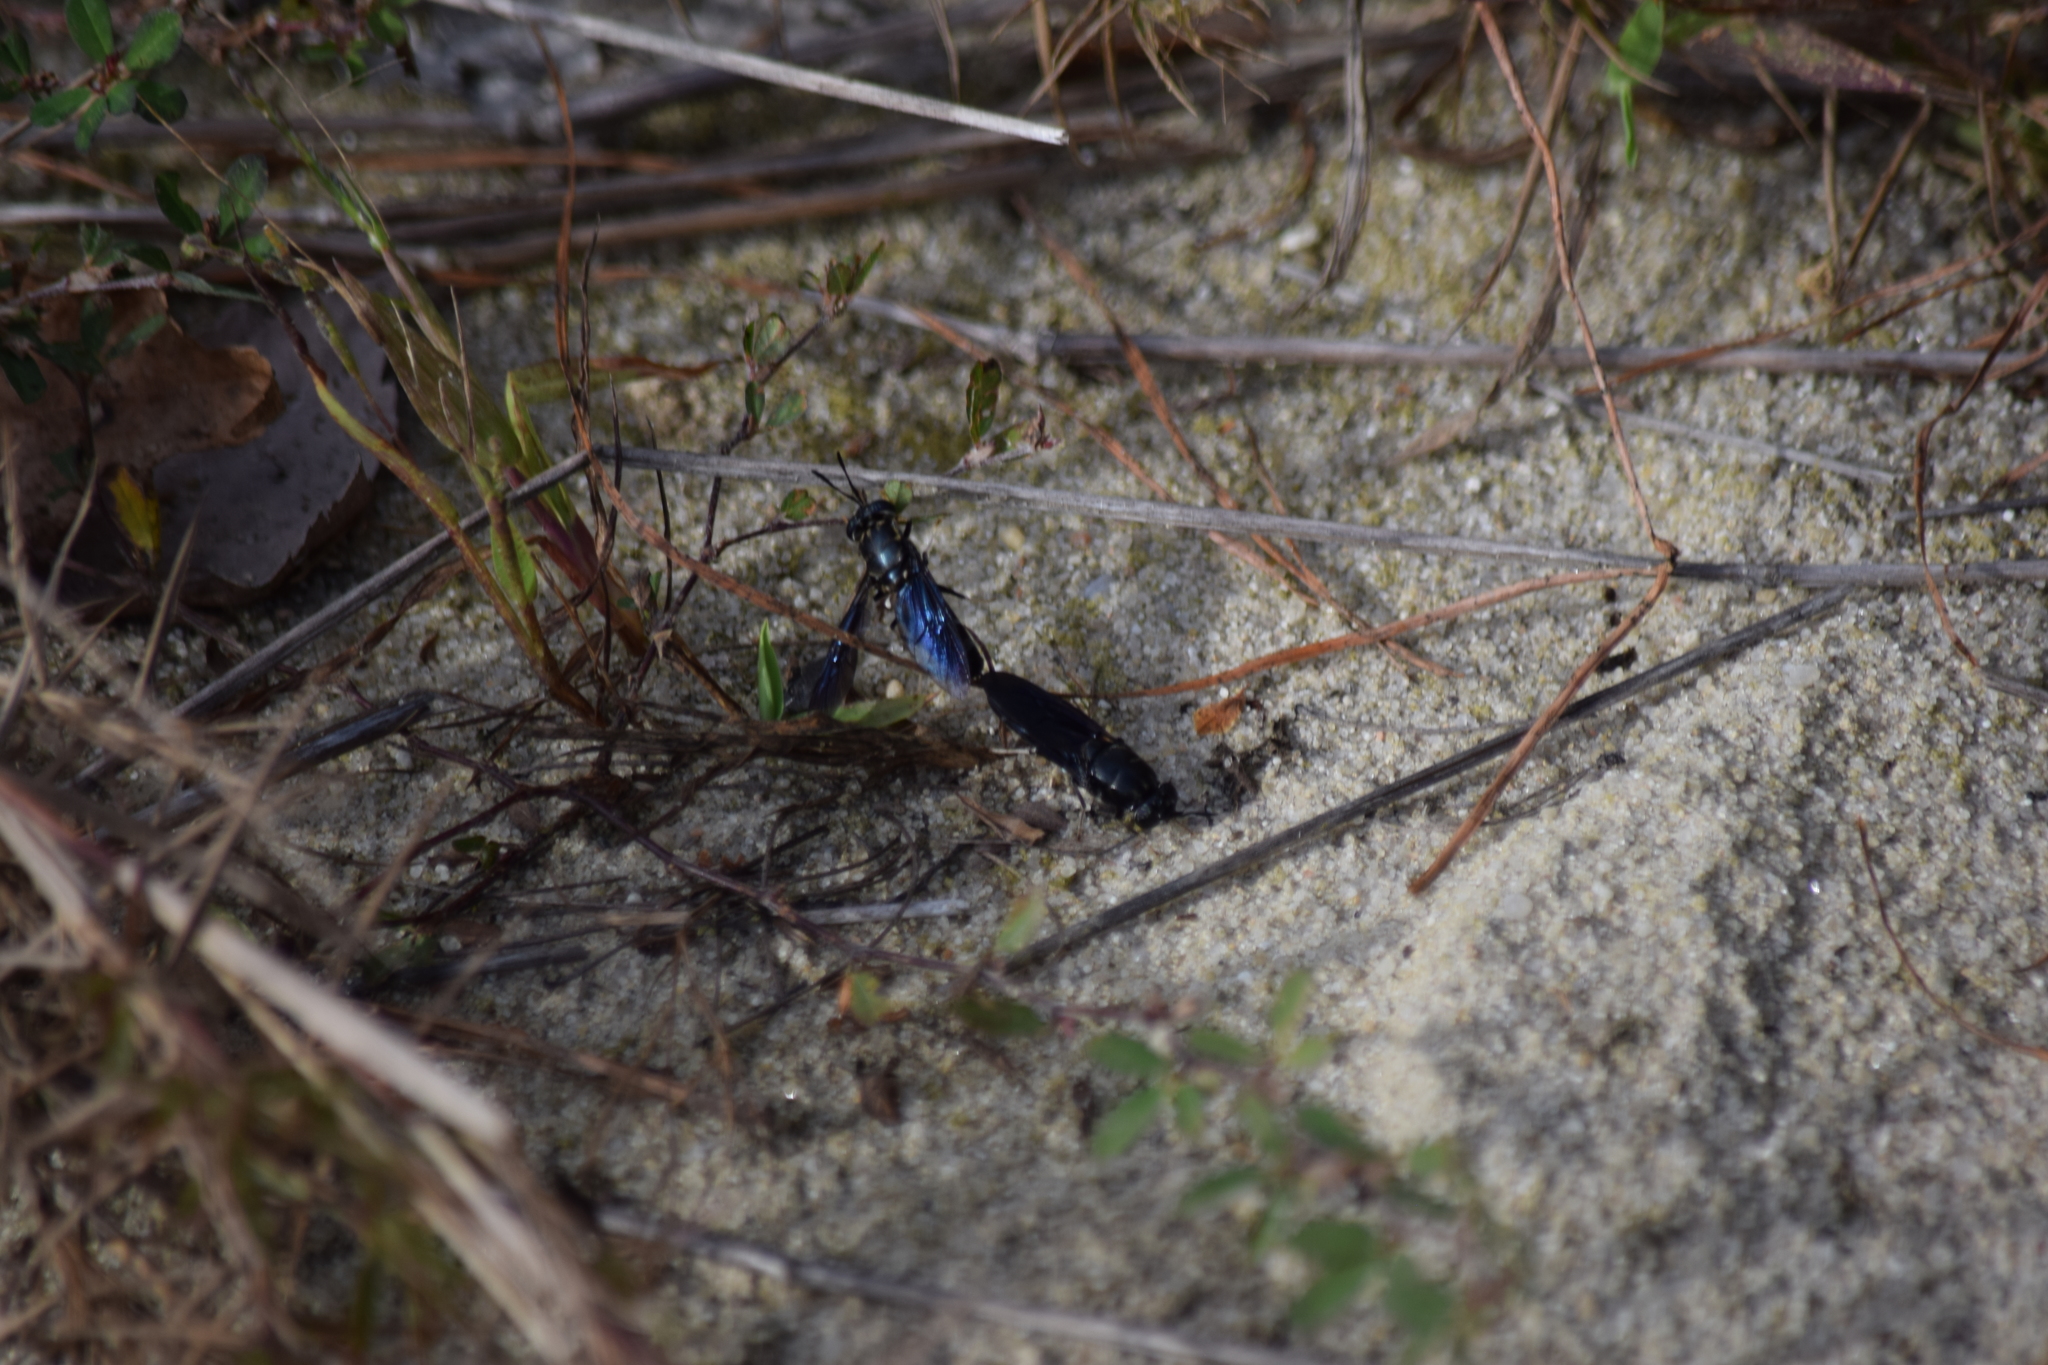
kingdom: Animalia
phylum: Arthropoda
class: Insecta
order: Diptera
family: Stratiomyidae
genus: Hermetia
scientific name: Hermetia
